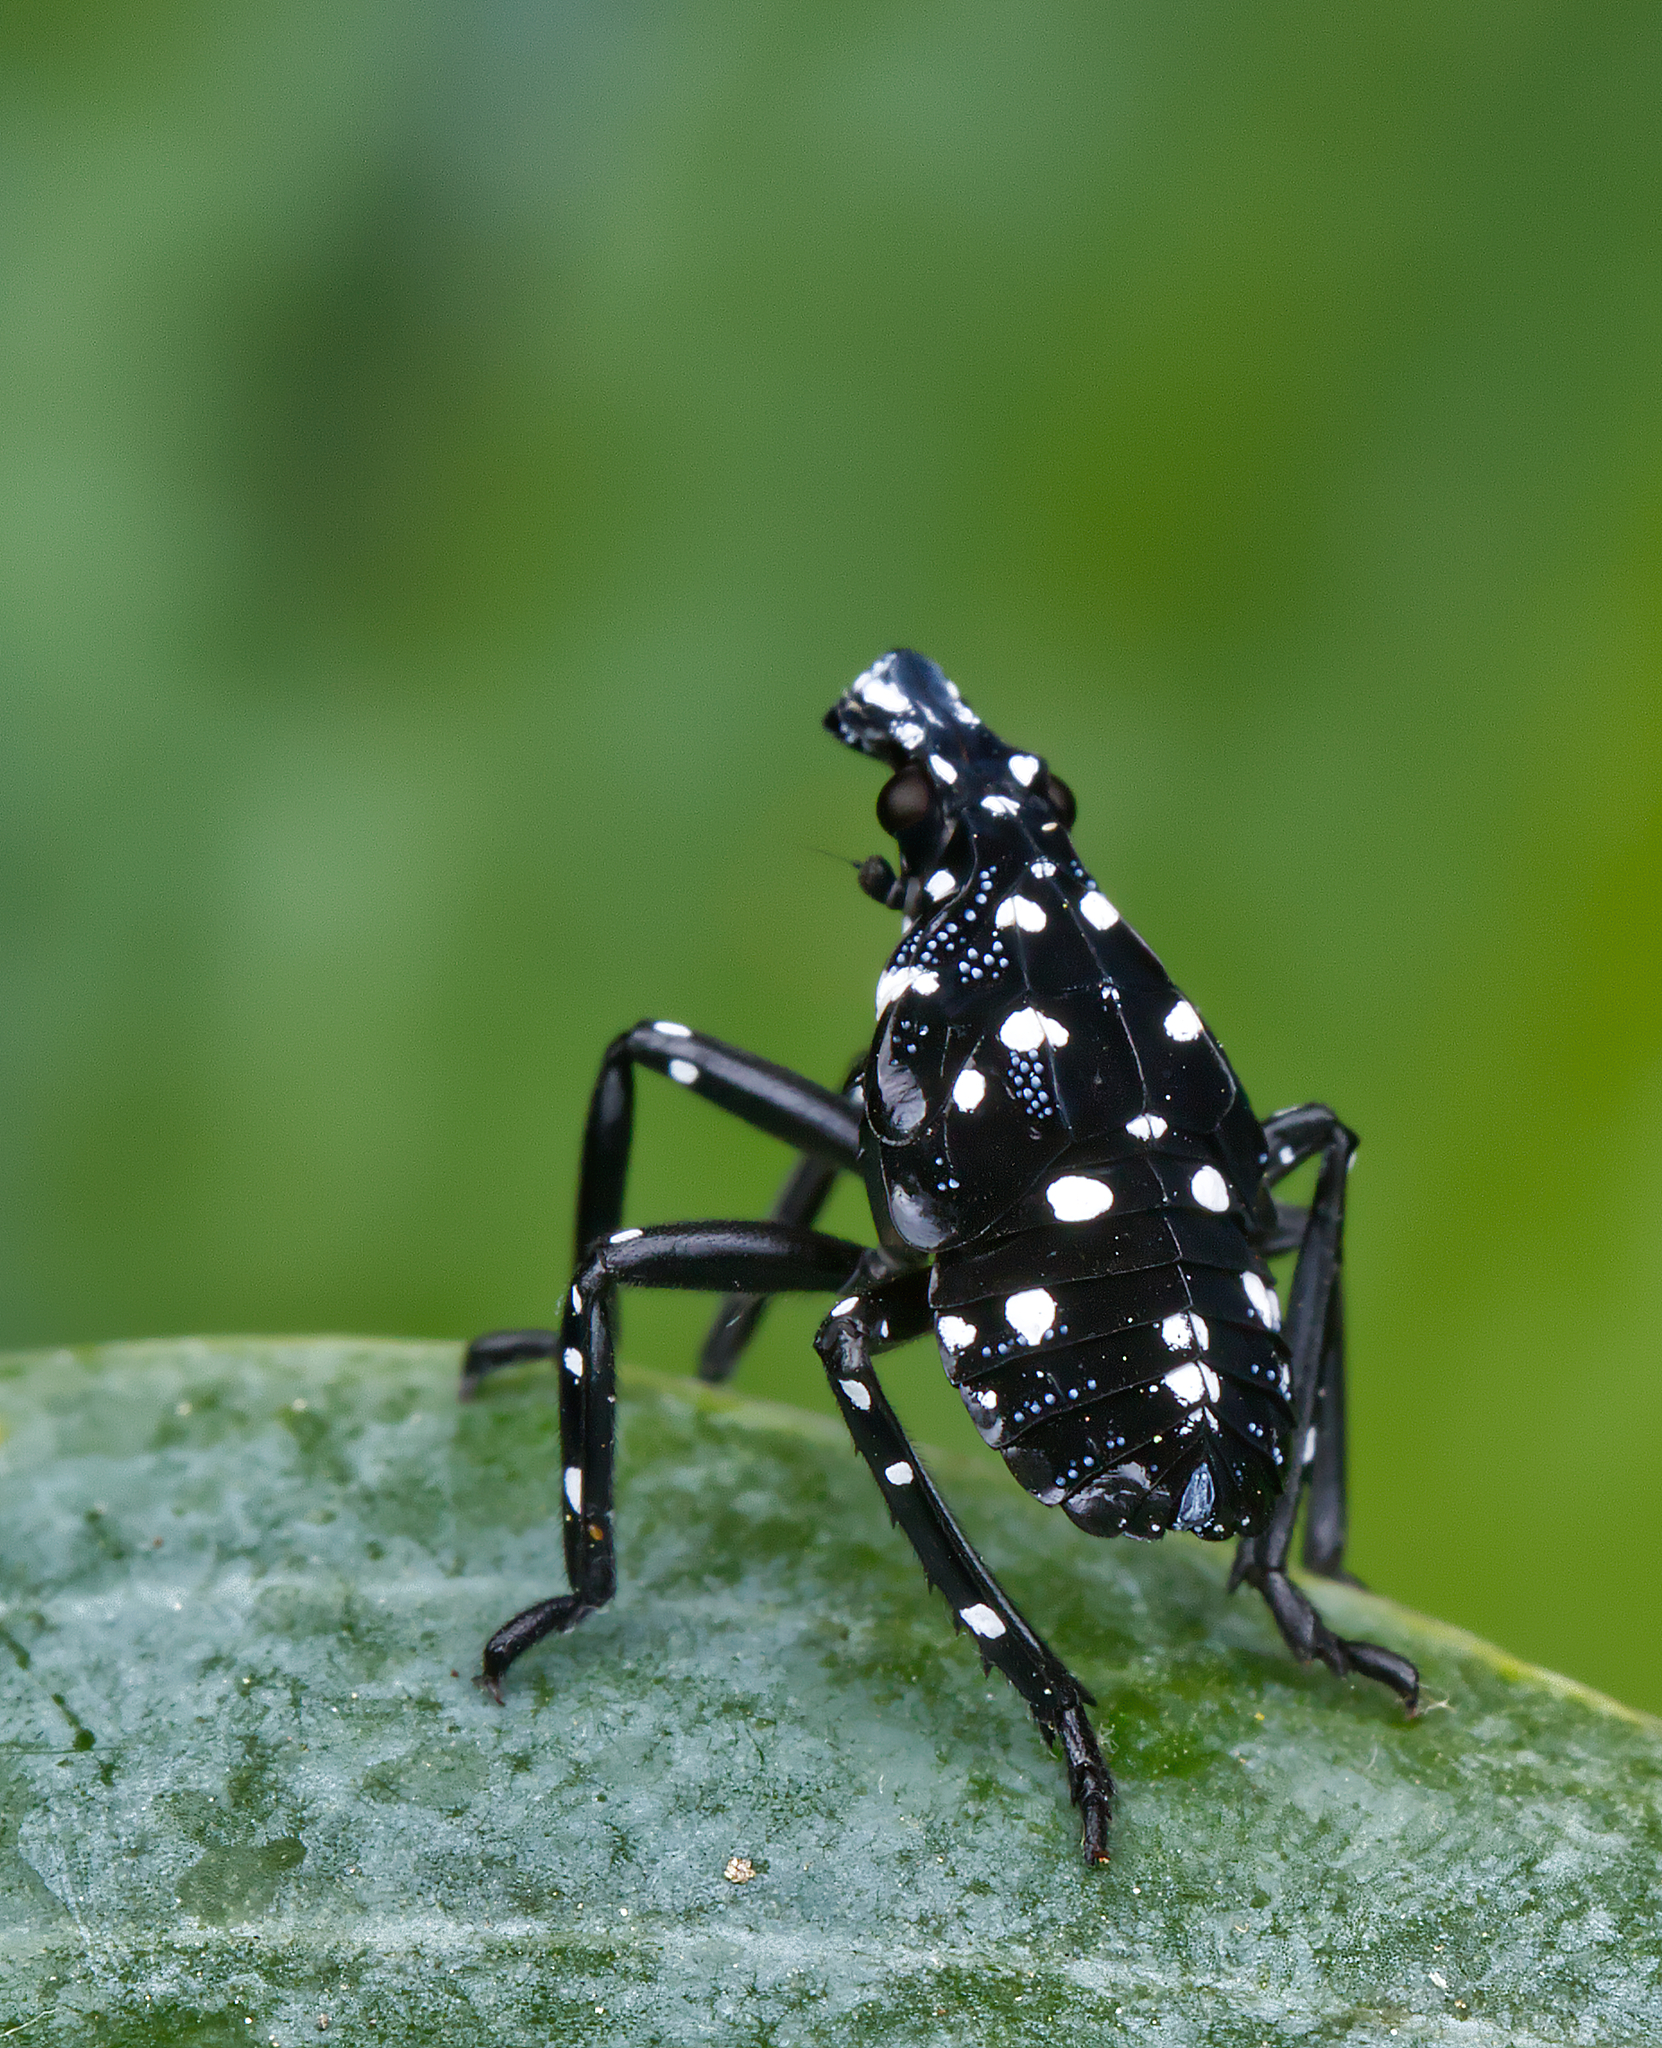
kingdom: Animalia
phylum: Arthropoda
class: Insecta
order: Hemiptera
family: Fulgoridae
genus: Lycorma
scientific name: Lycorma delicatula
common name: Spotted lanternfly
